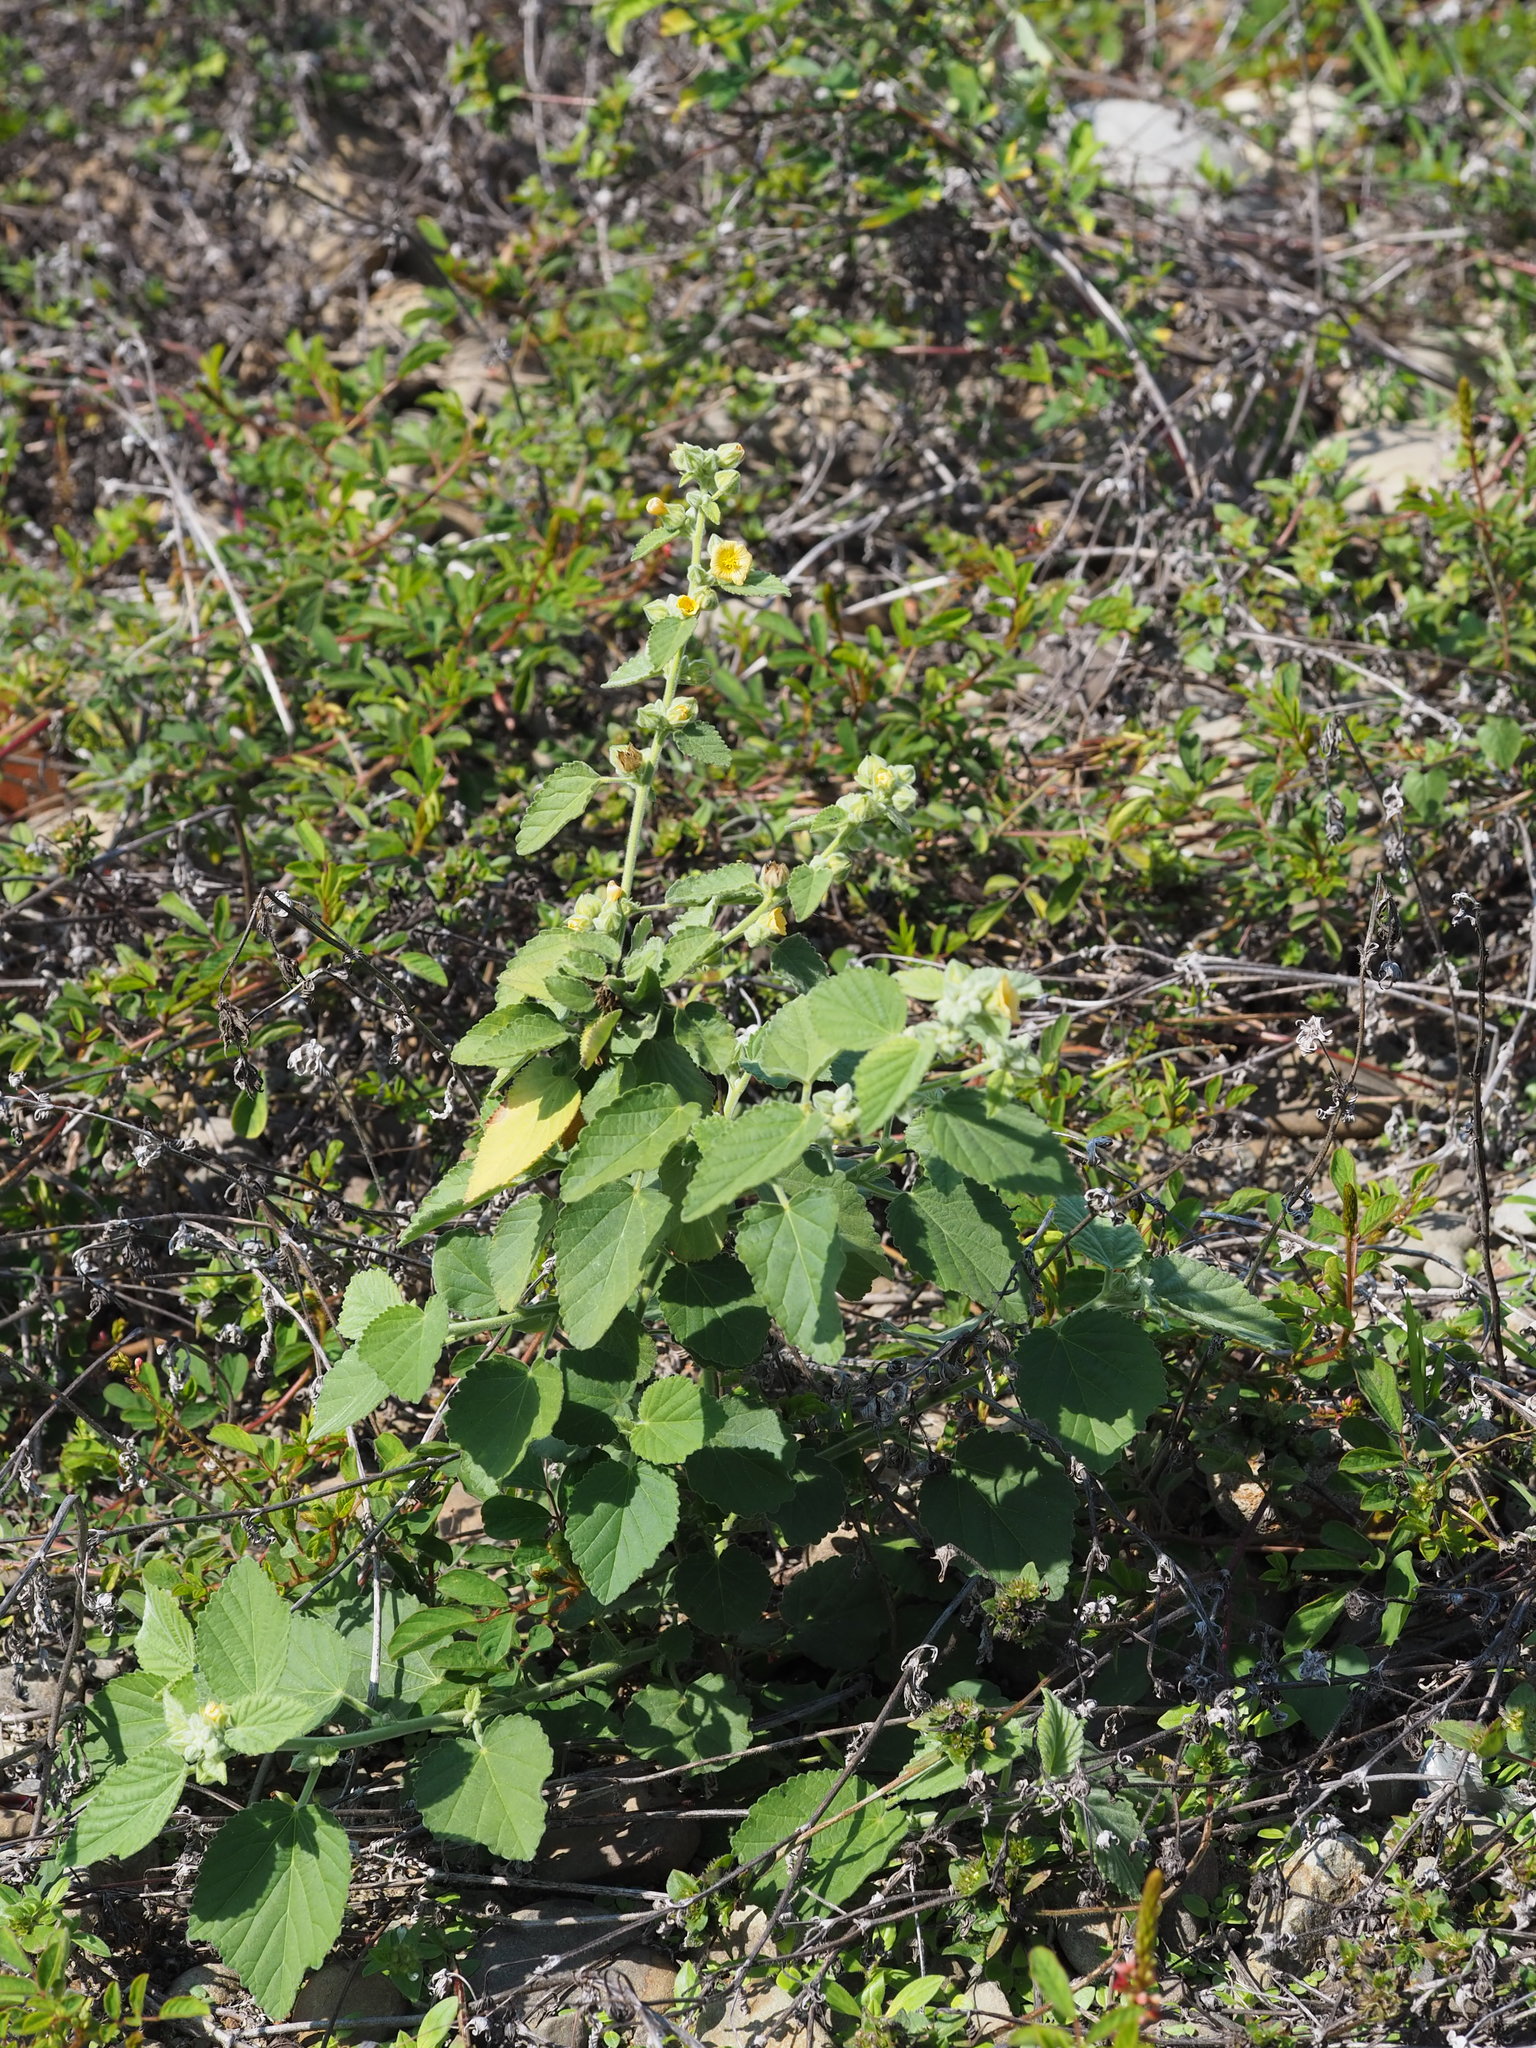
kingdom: Plantae
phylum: Tracheophyta
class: Magnoliopsida
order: Malvales
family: Malvaceae
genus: Sida
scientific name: Sida cordifolia
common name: Ilima
